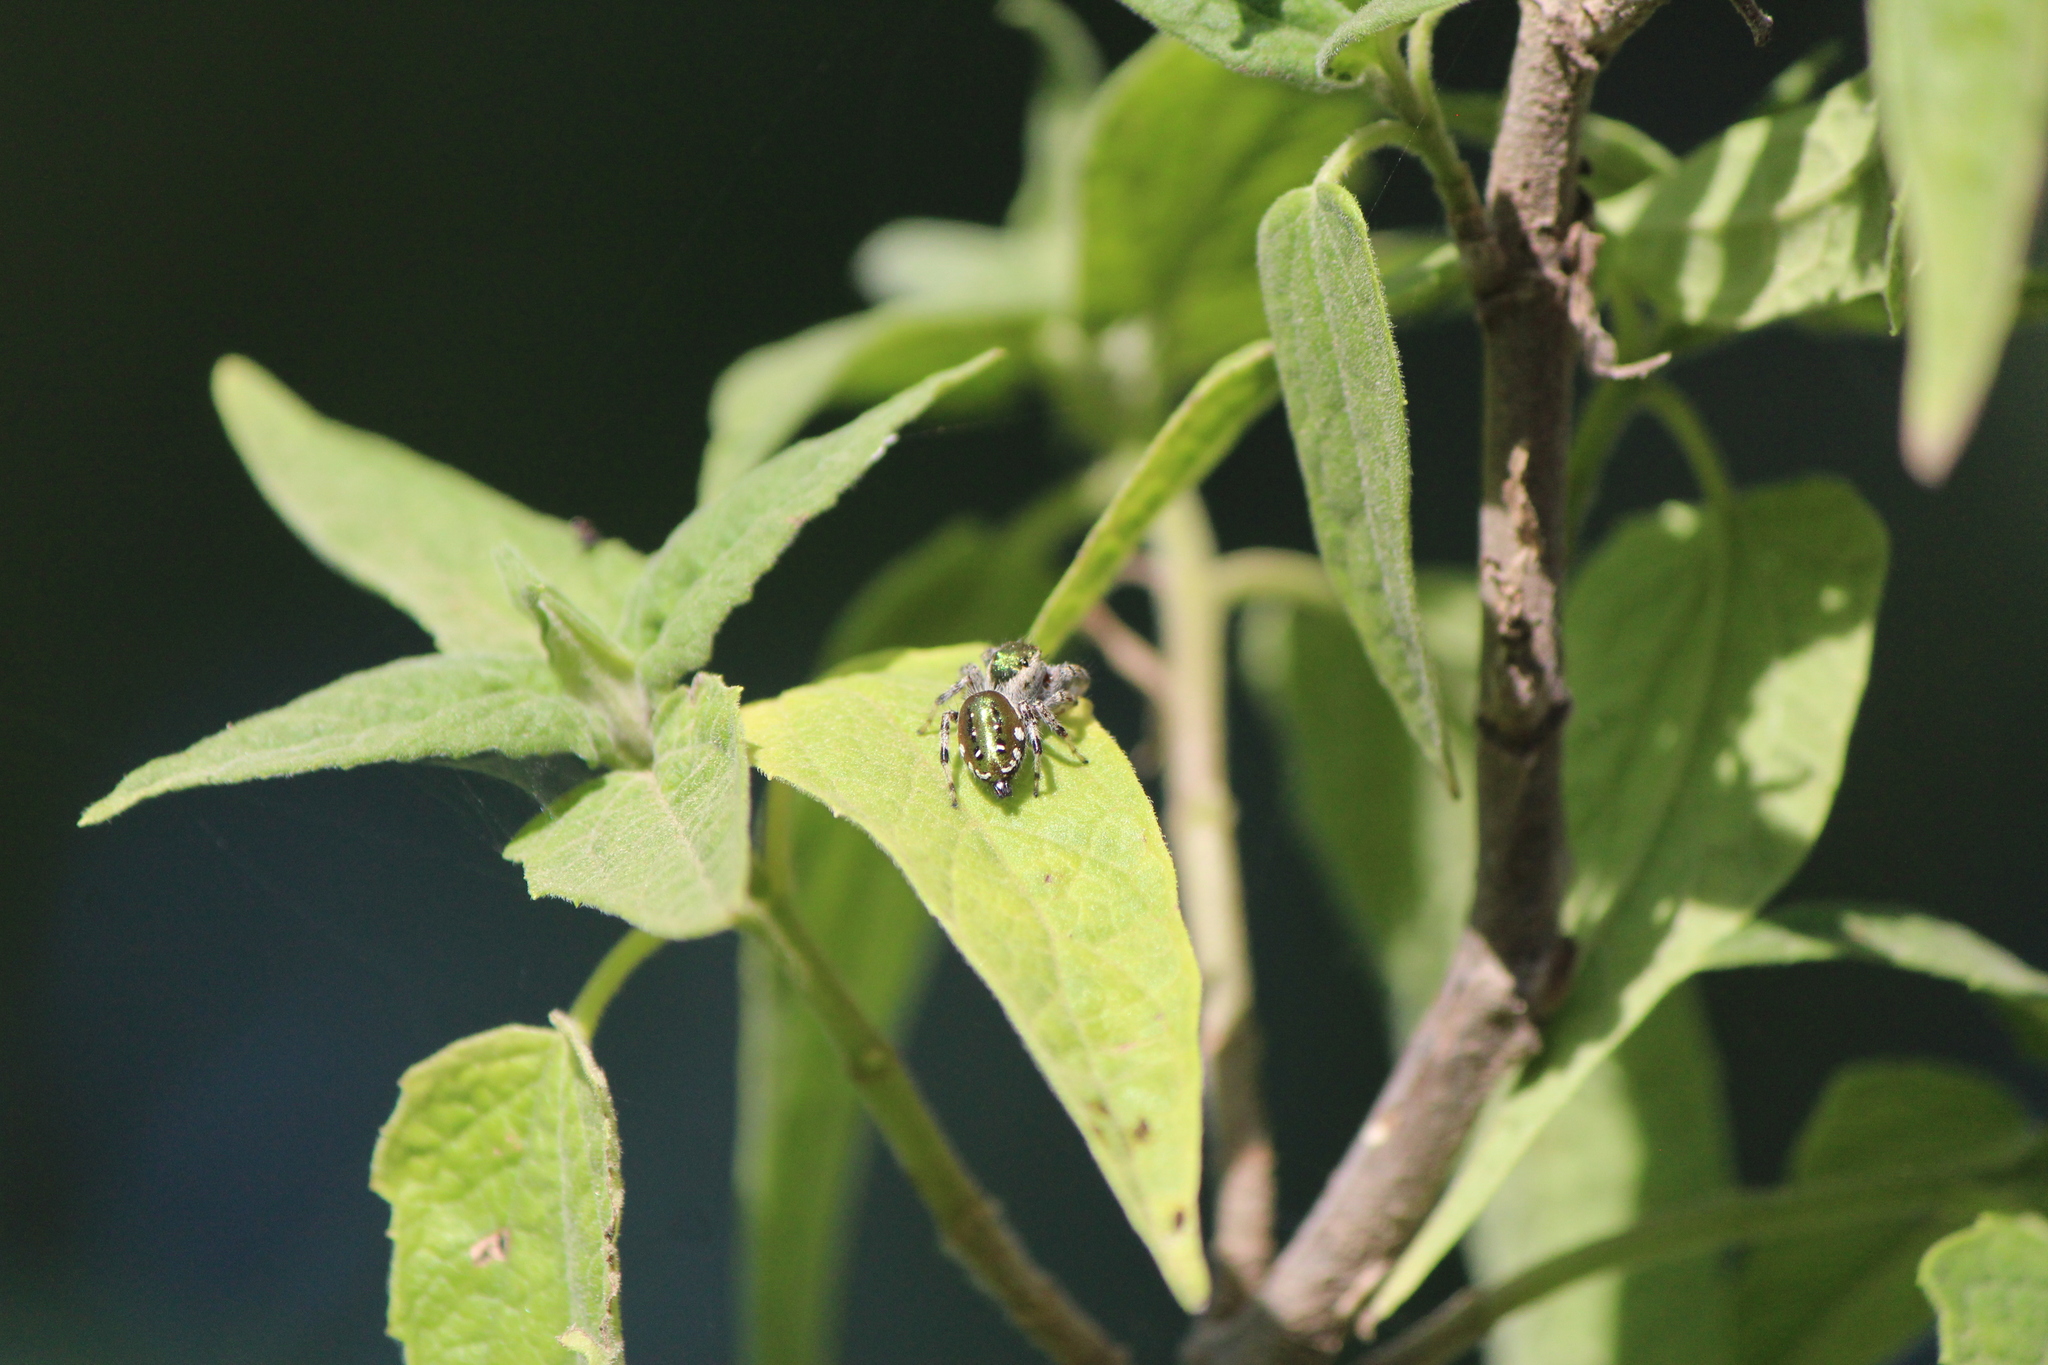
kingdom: Animalia
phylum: Arthropoda
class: Arachnida
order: Araneae
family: Salticidae
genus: Paraphidippus
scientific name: Paraphidippus aurantius
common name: Jumping spiders
